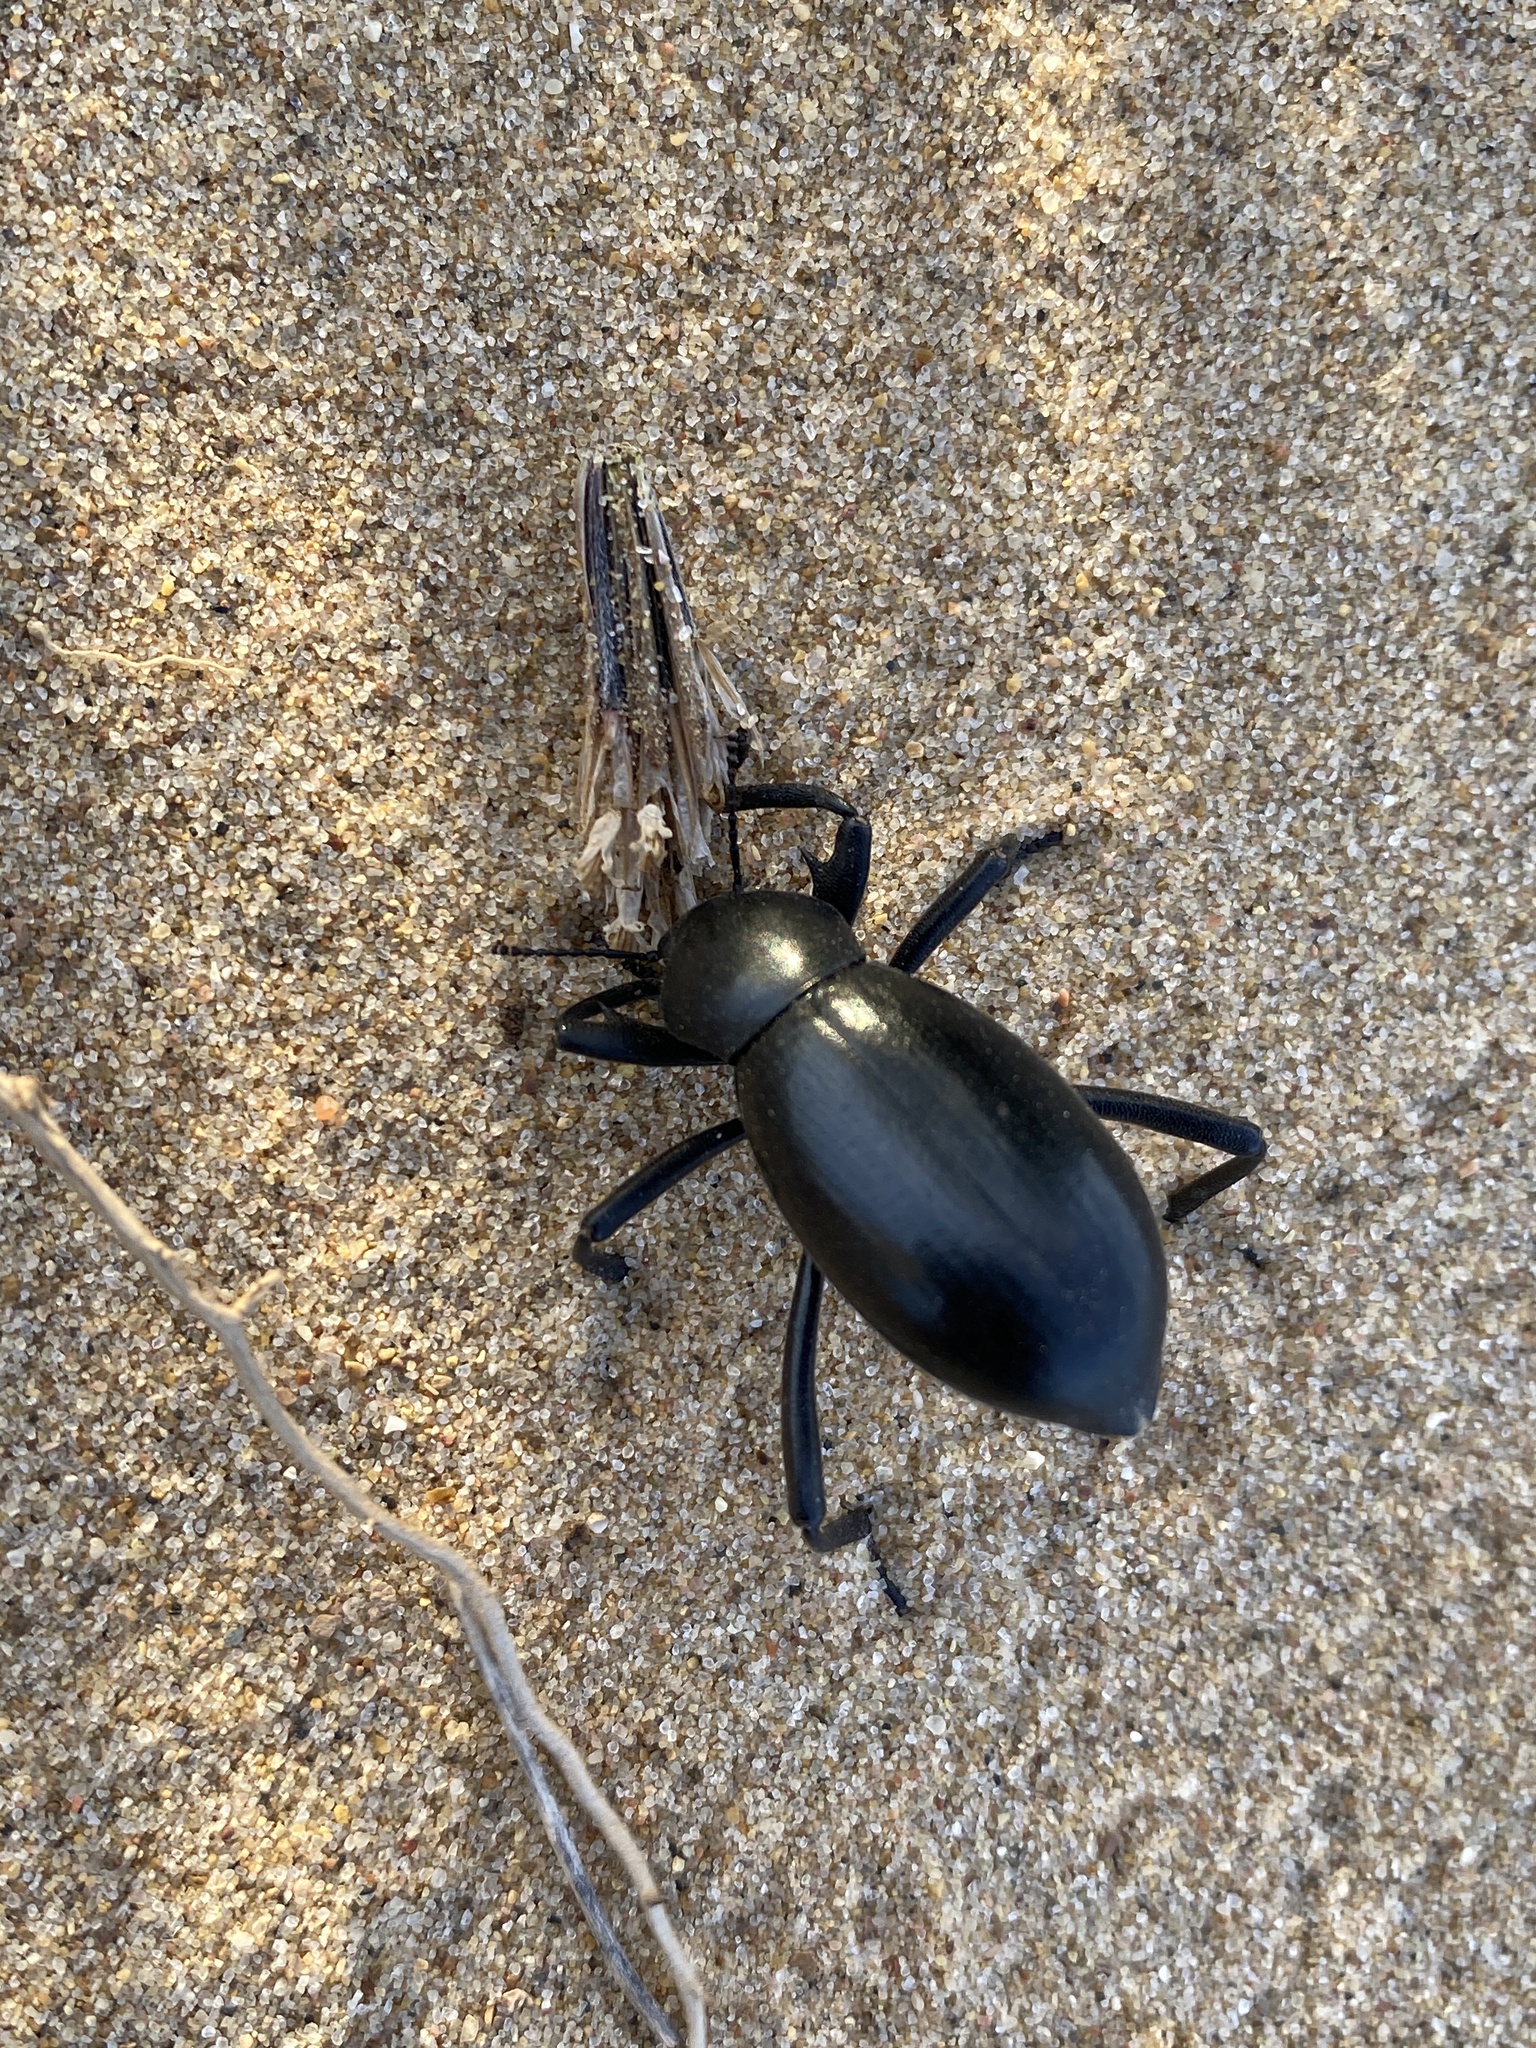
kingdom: Animalia
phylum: Arthropoda
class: Insecta
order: Coleoptera
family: Tenebrionidae
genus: Eleodes
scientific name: Eleodes armata
